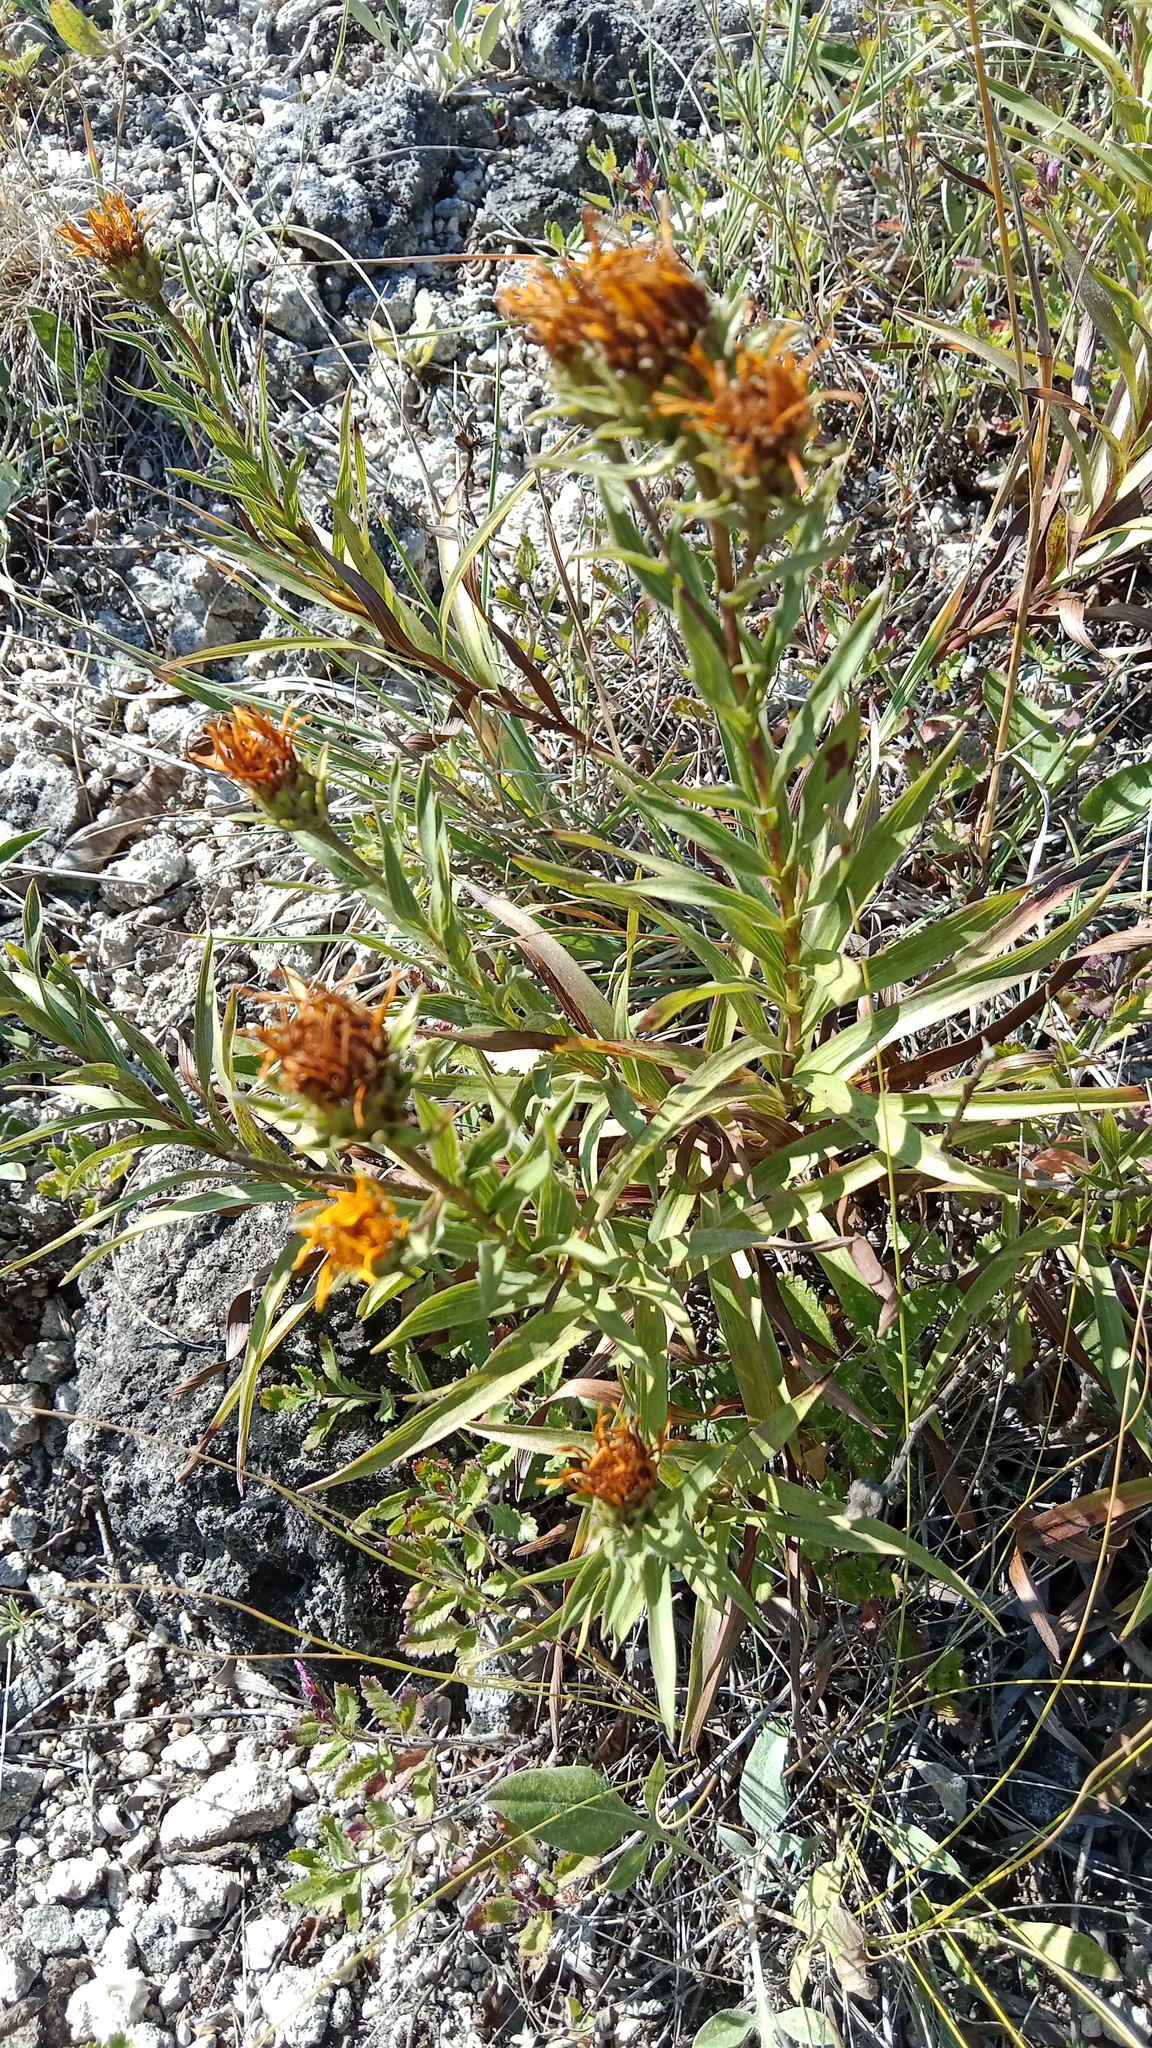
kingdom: Plantae
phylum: Tracheophyta
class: Magnoliopsida
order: Asterales
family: Asteraceae
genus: Pentanema
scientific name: Pentanema ensifolium
